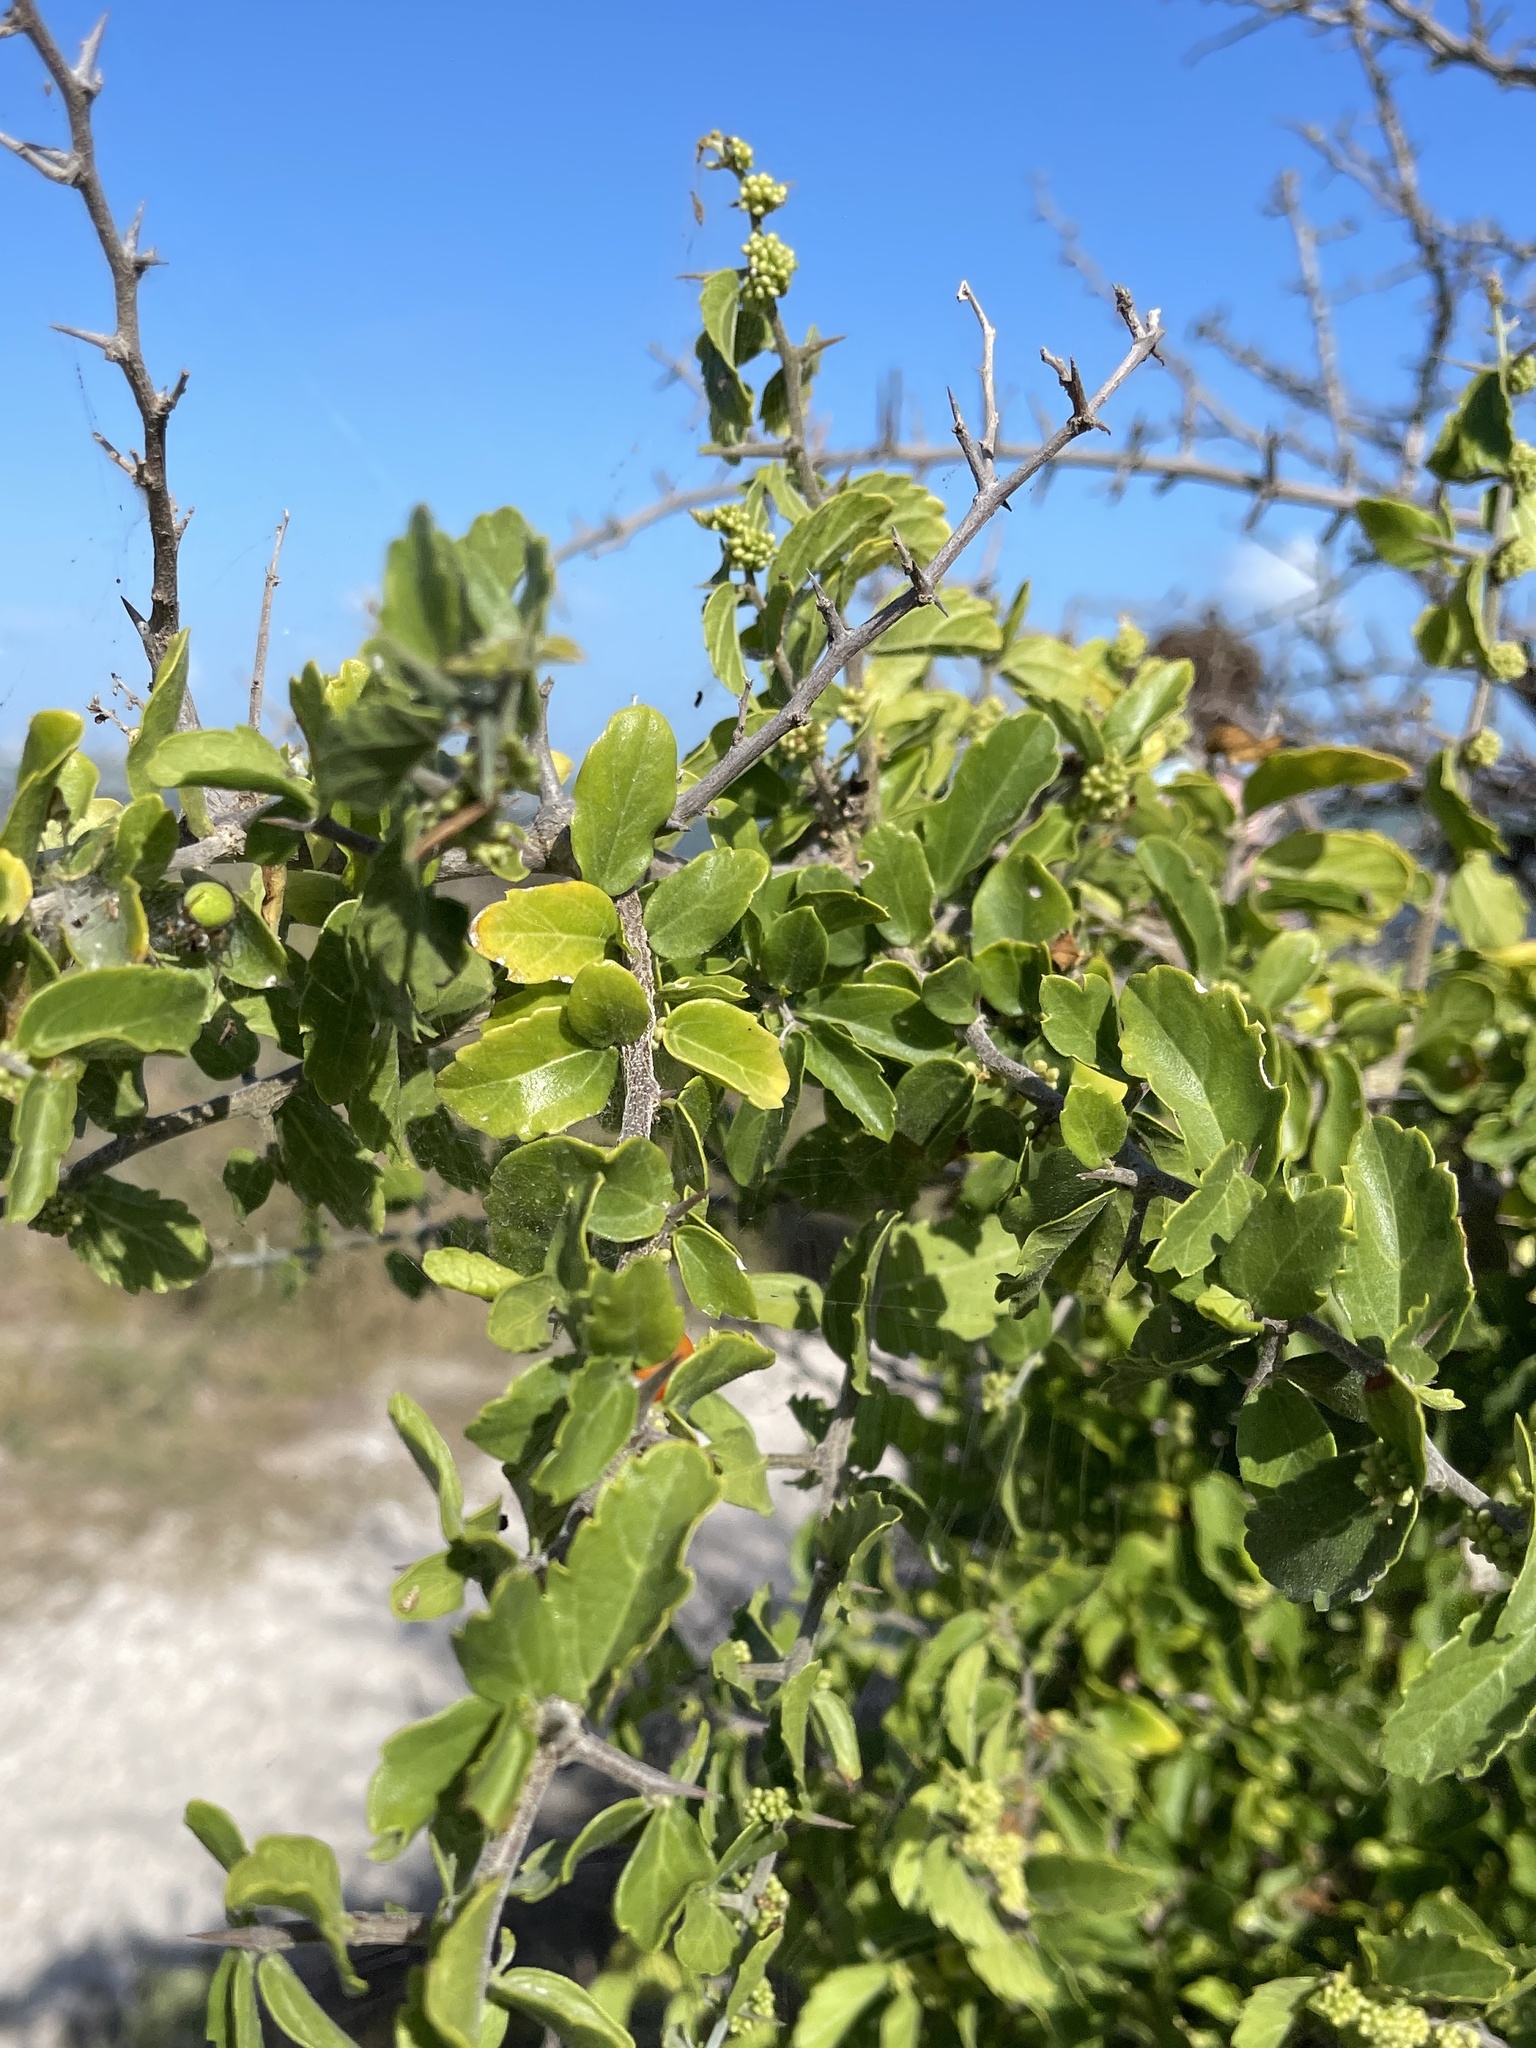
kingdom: Plantae
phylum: Tracheophyta
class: Magnoliopsida
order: Rosales
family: Cannabaceae
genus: Celtis
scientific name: Celtis pallida
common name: Desert hackberry
